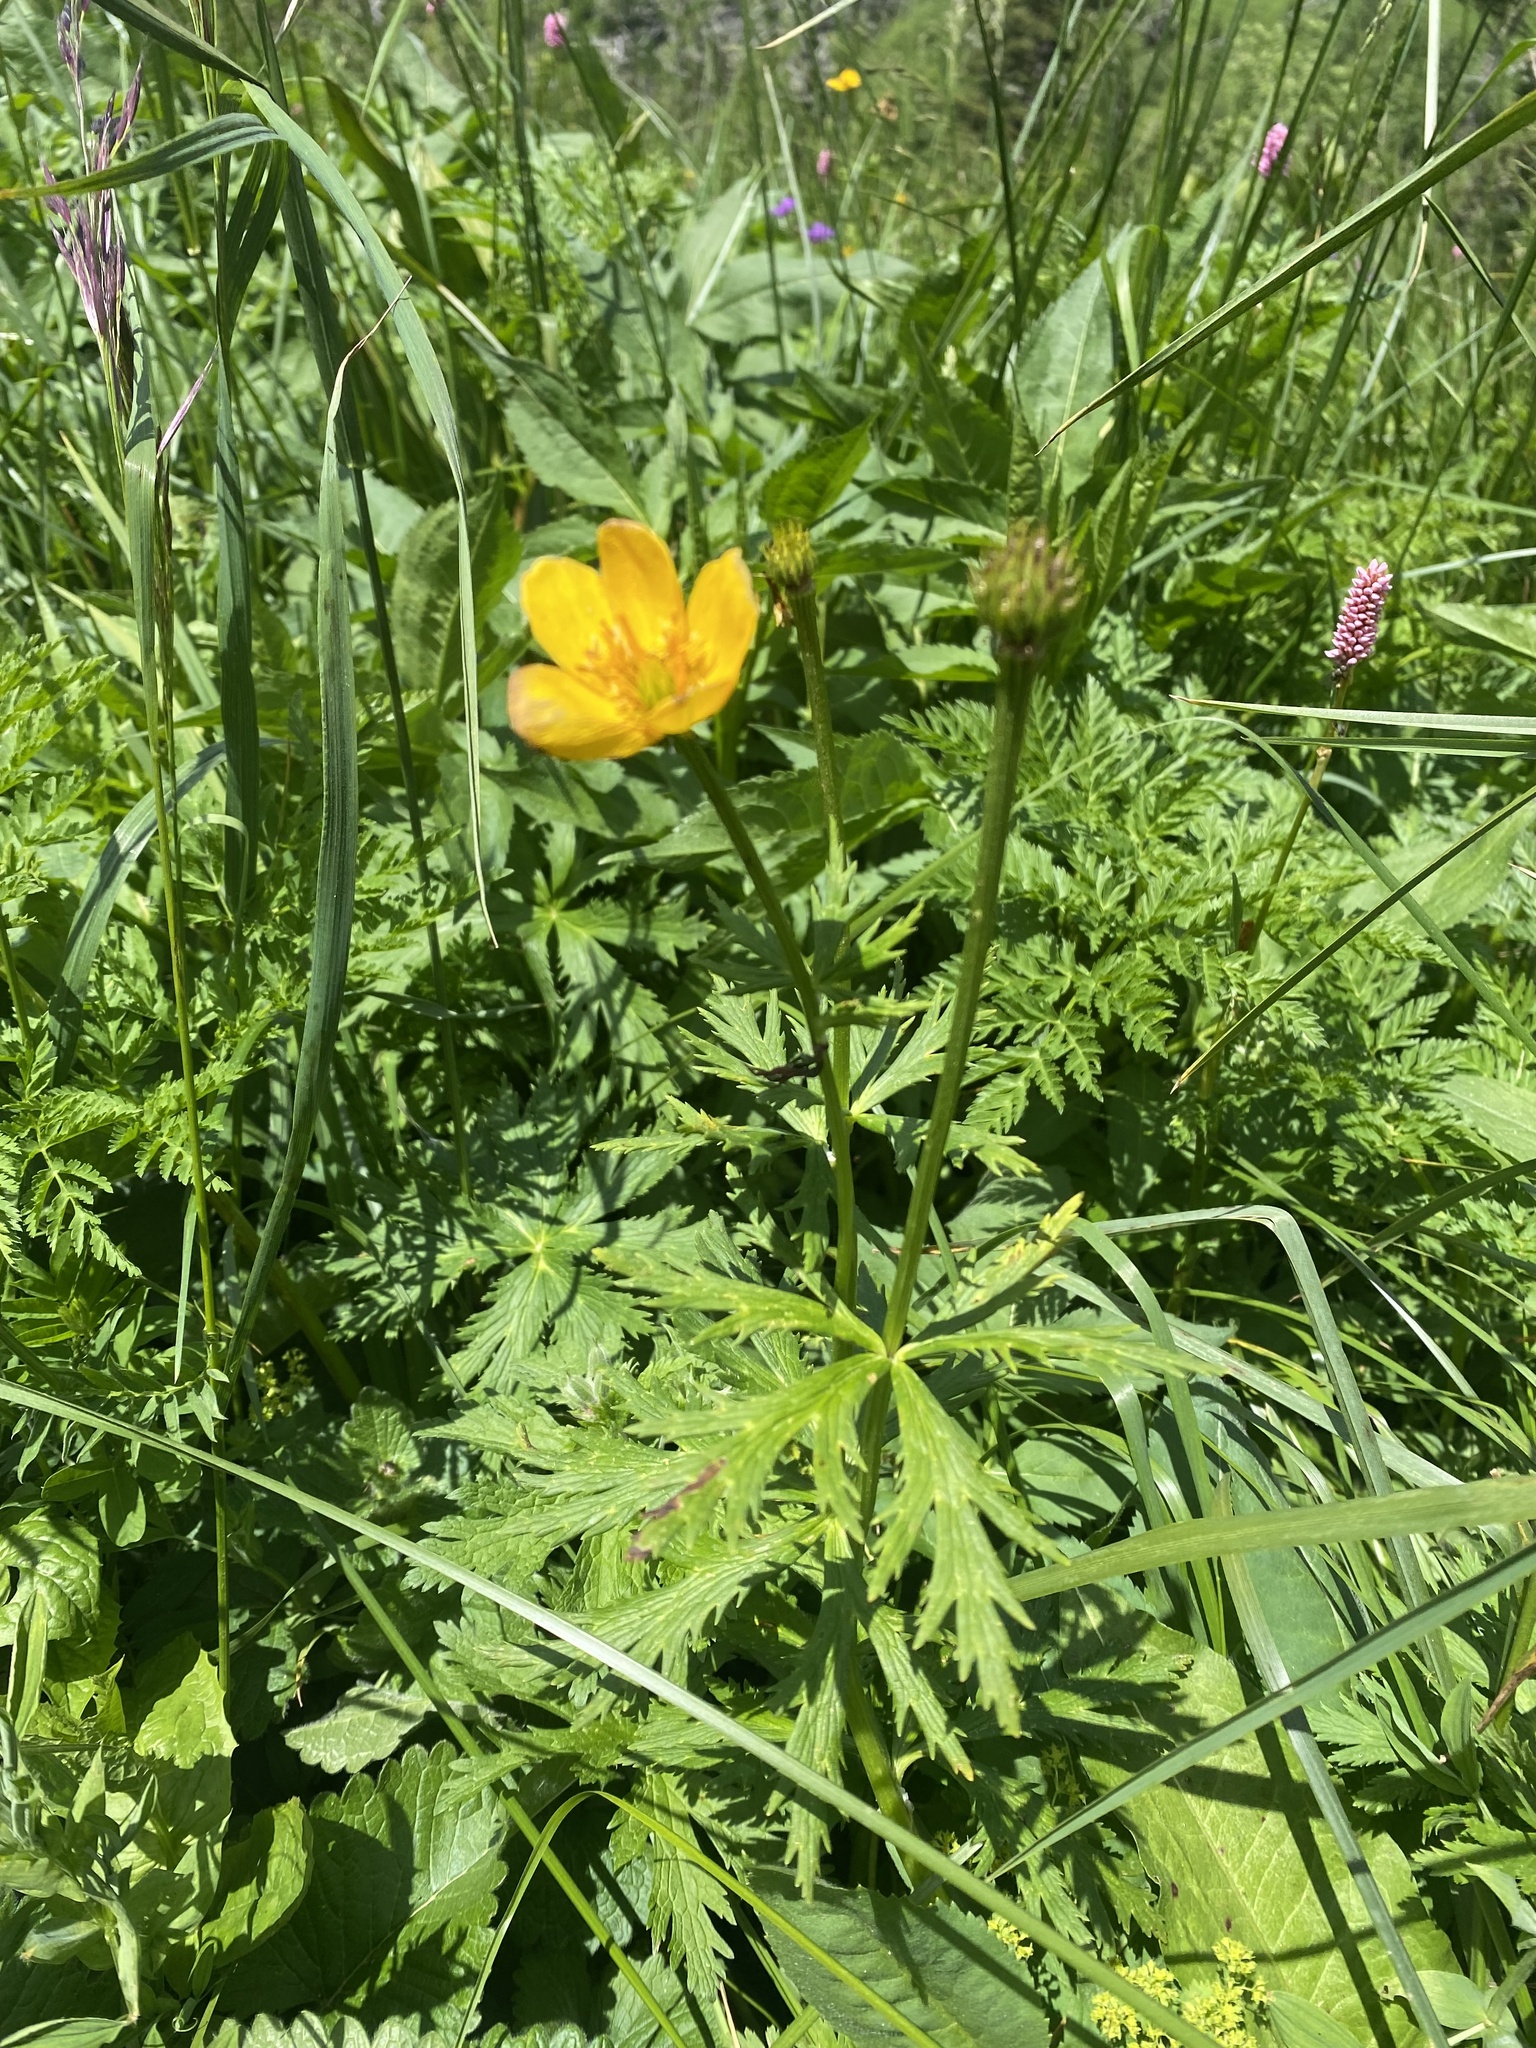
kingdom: Plantae
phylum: Tracheophyta
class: Magnoliopsida
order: Ranunculales
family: Ranunculaceae
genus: Trollius
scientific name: Trollius ranunculinus
